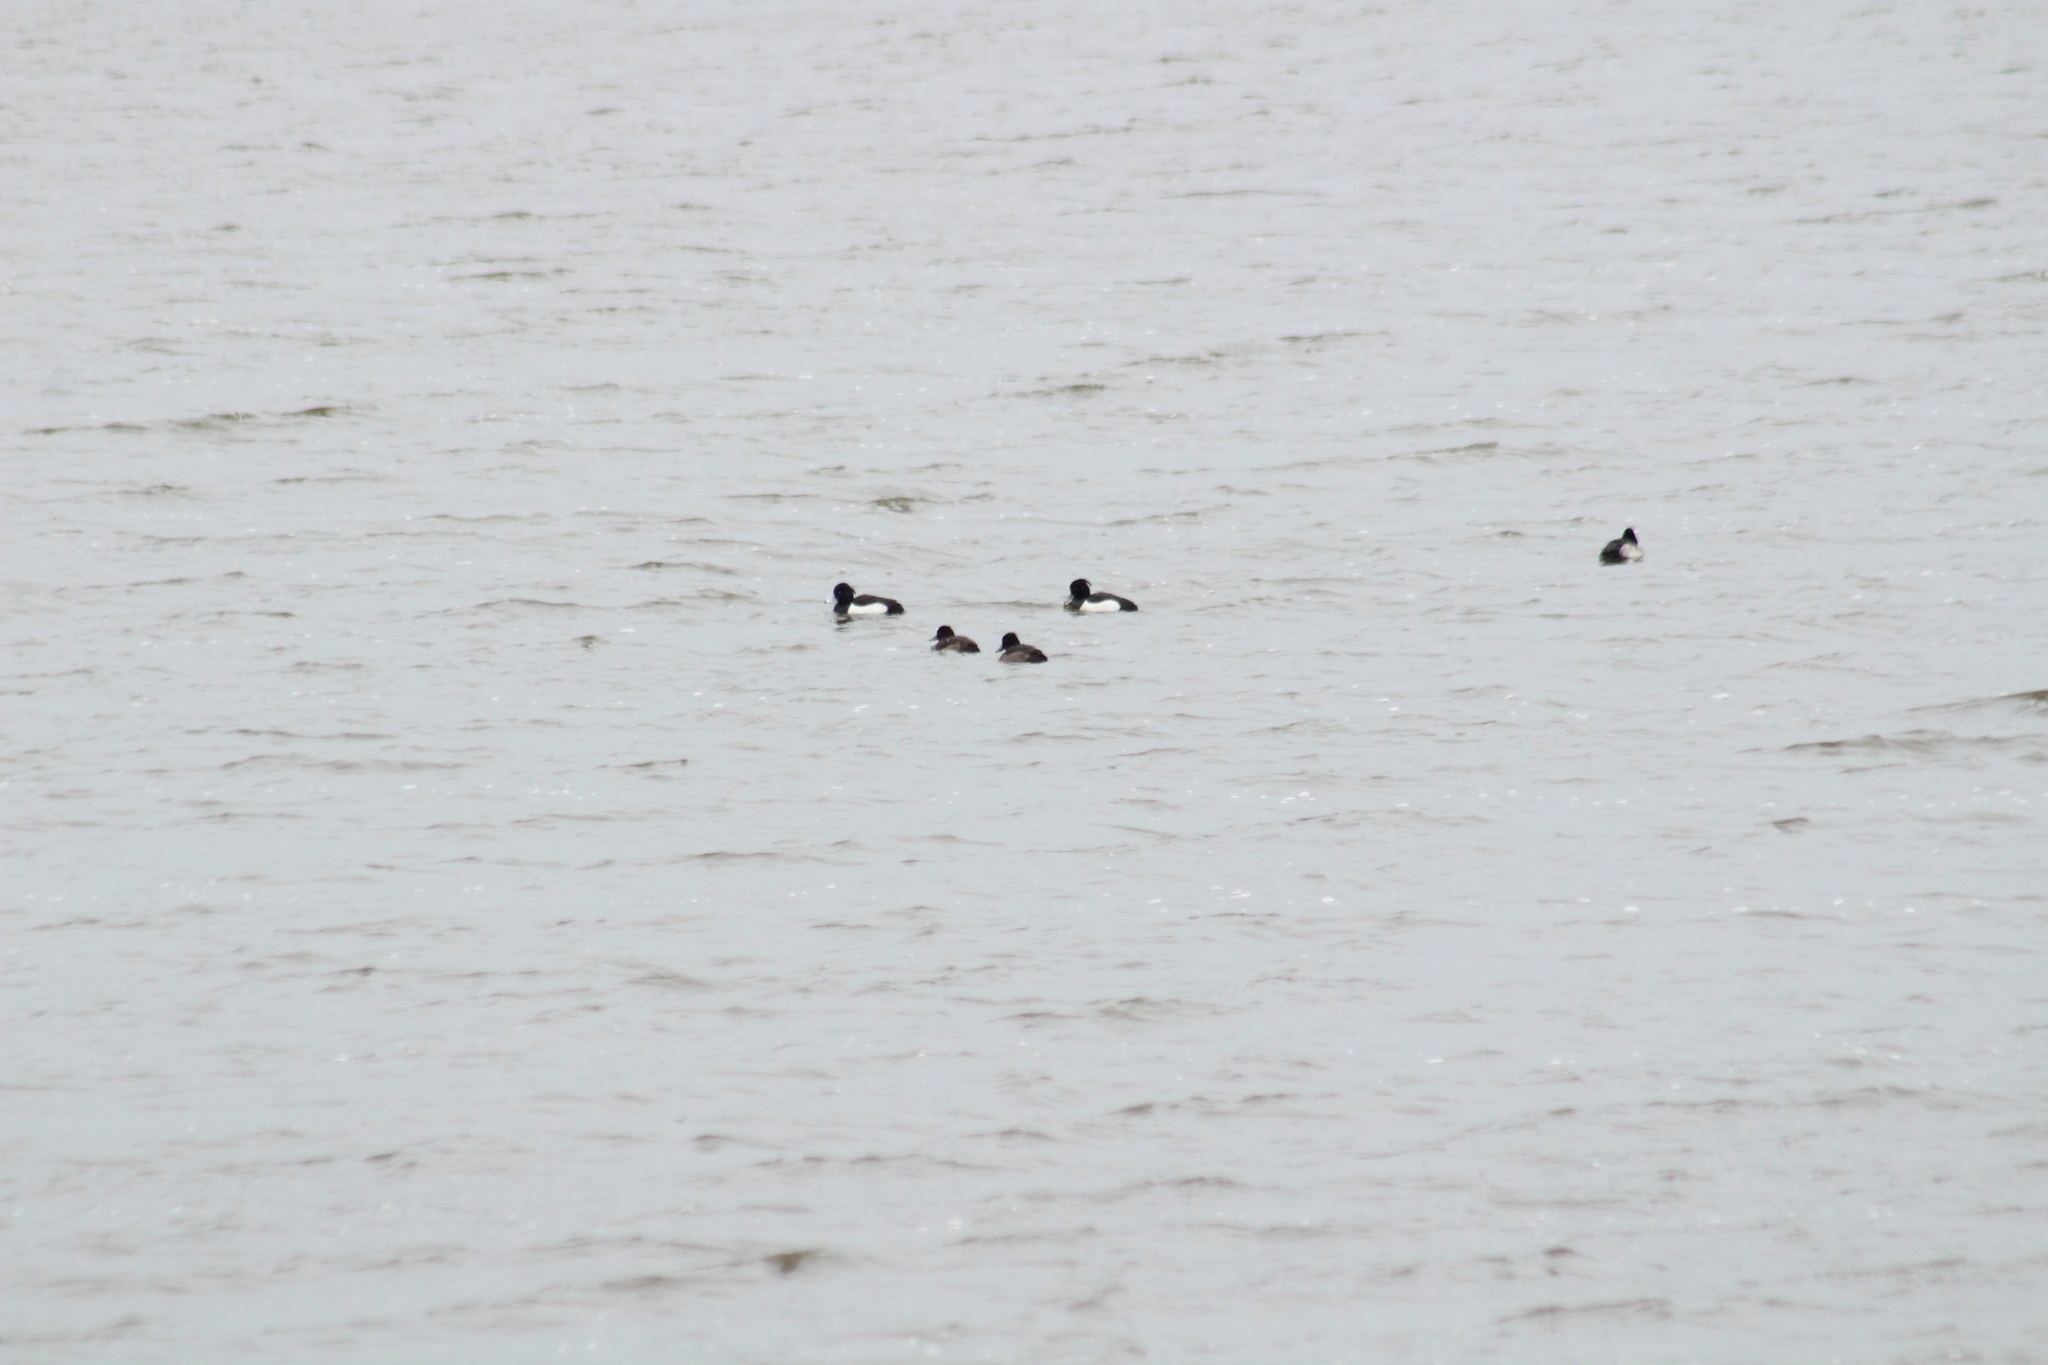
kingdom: Animalia
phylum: Chordata
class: Aves
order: Anseriformes
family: Anatidae
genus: Aythya
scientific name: Aythya fuligula
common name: Tufted duck
